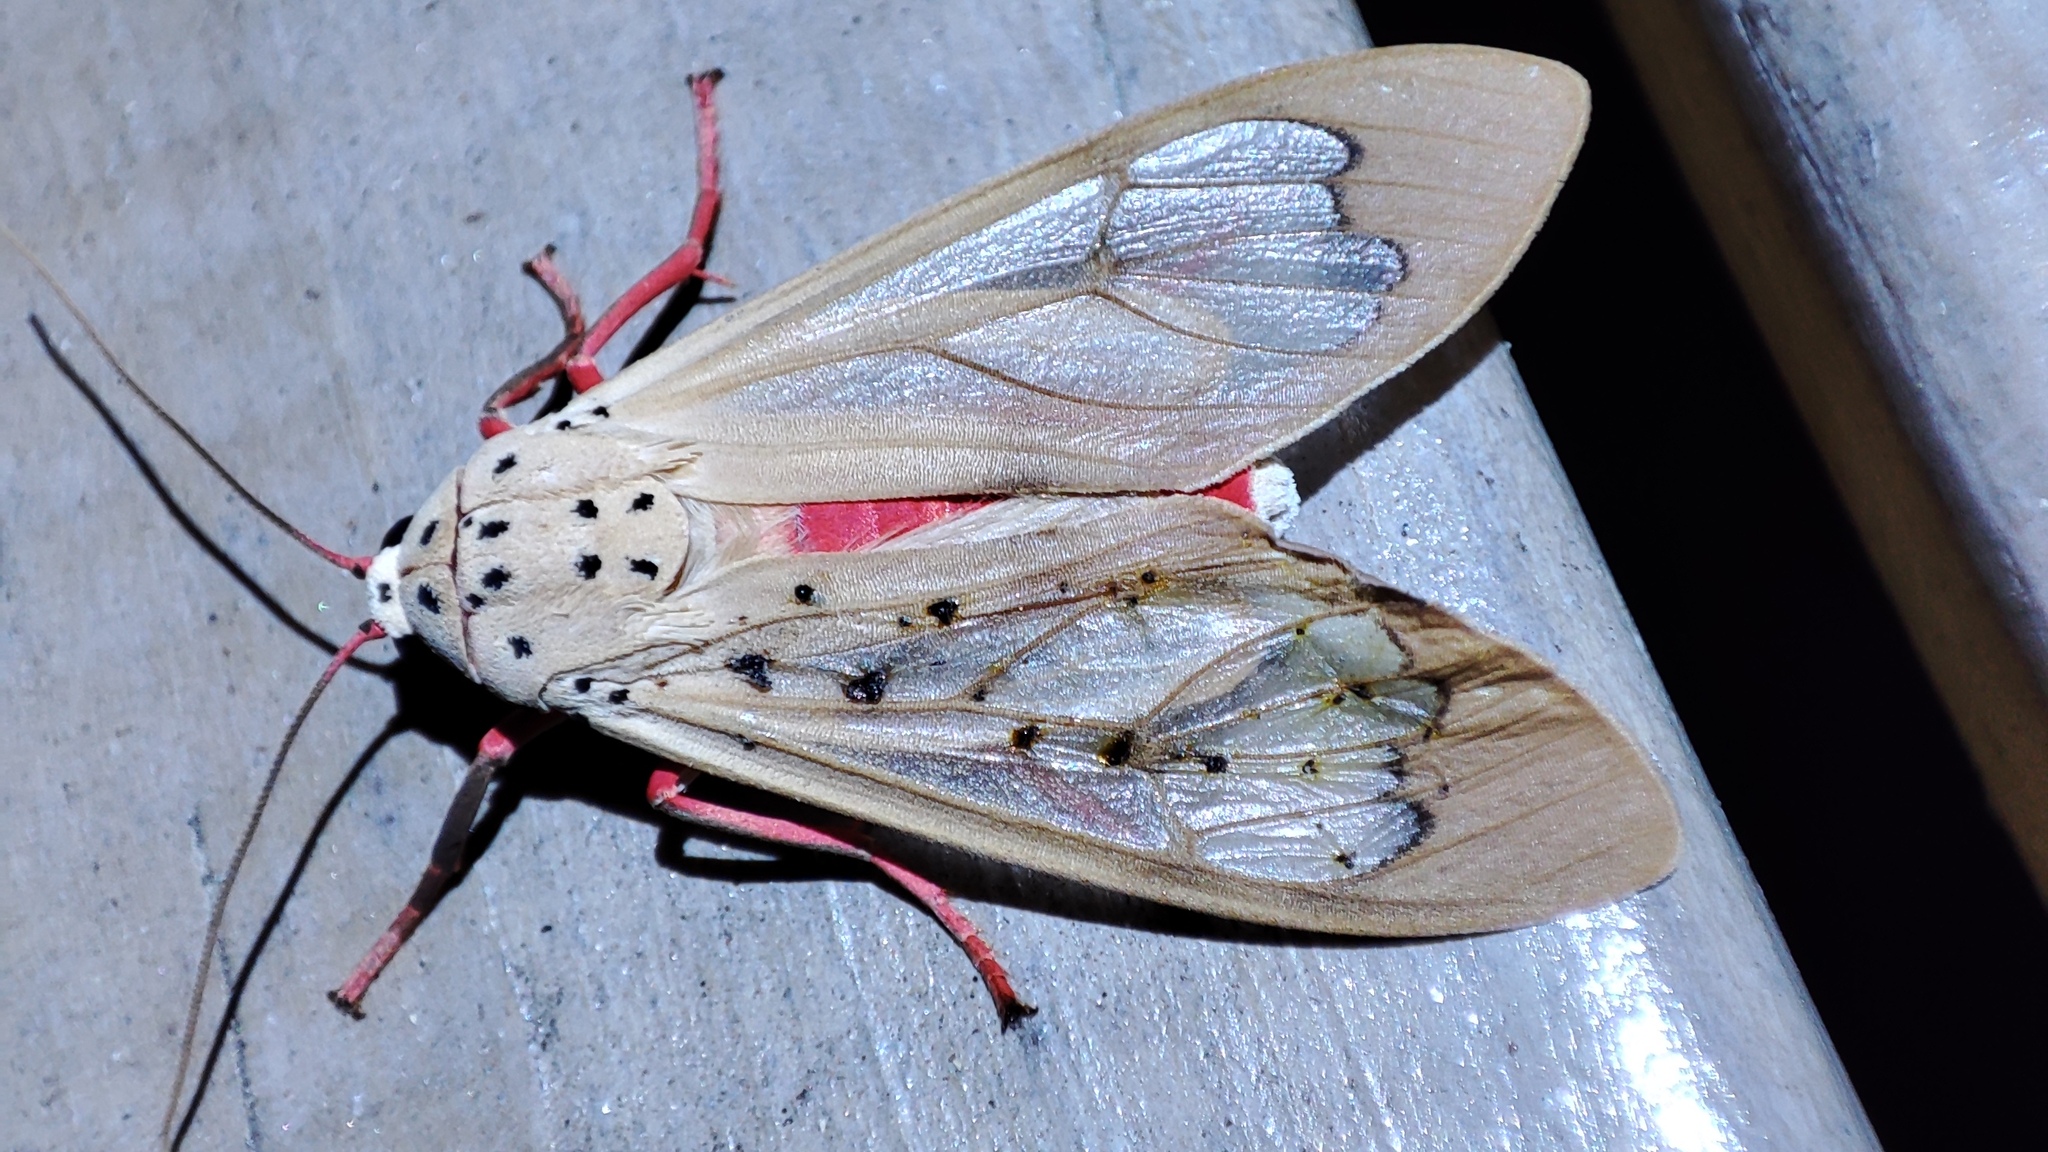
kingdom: Animalia
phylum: Arthropoda
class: Insecta
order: Lepidoptera
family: Erebidae
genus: Amerila
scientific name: Amerila bauri
